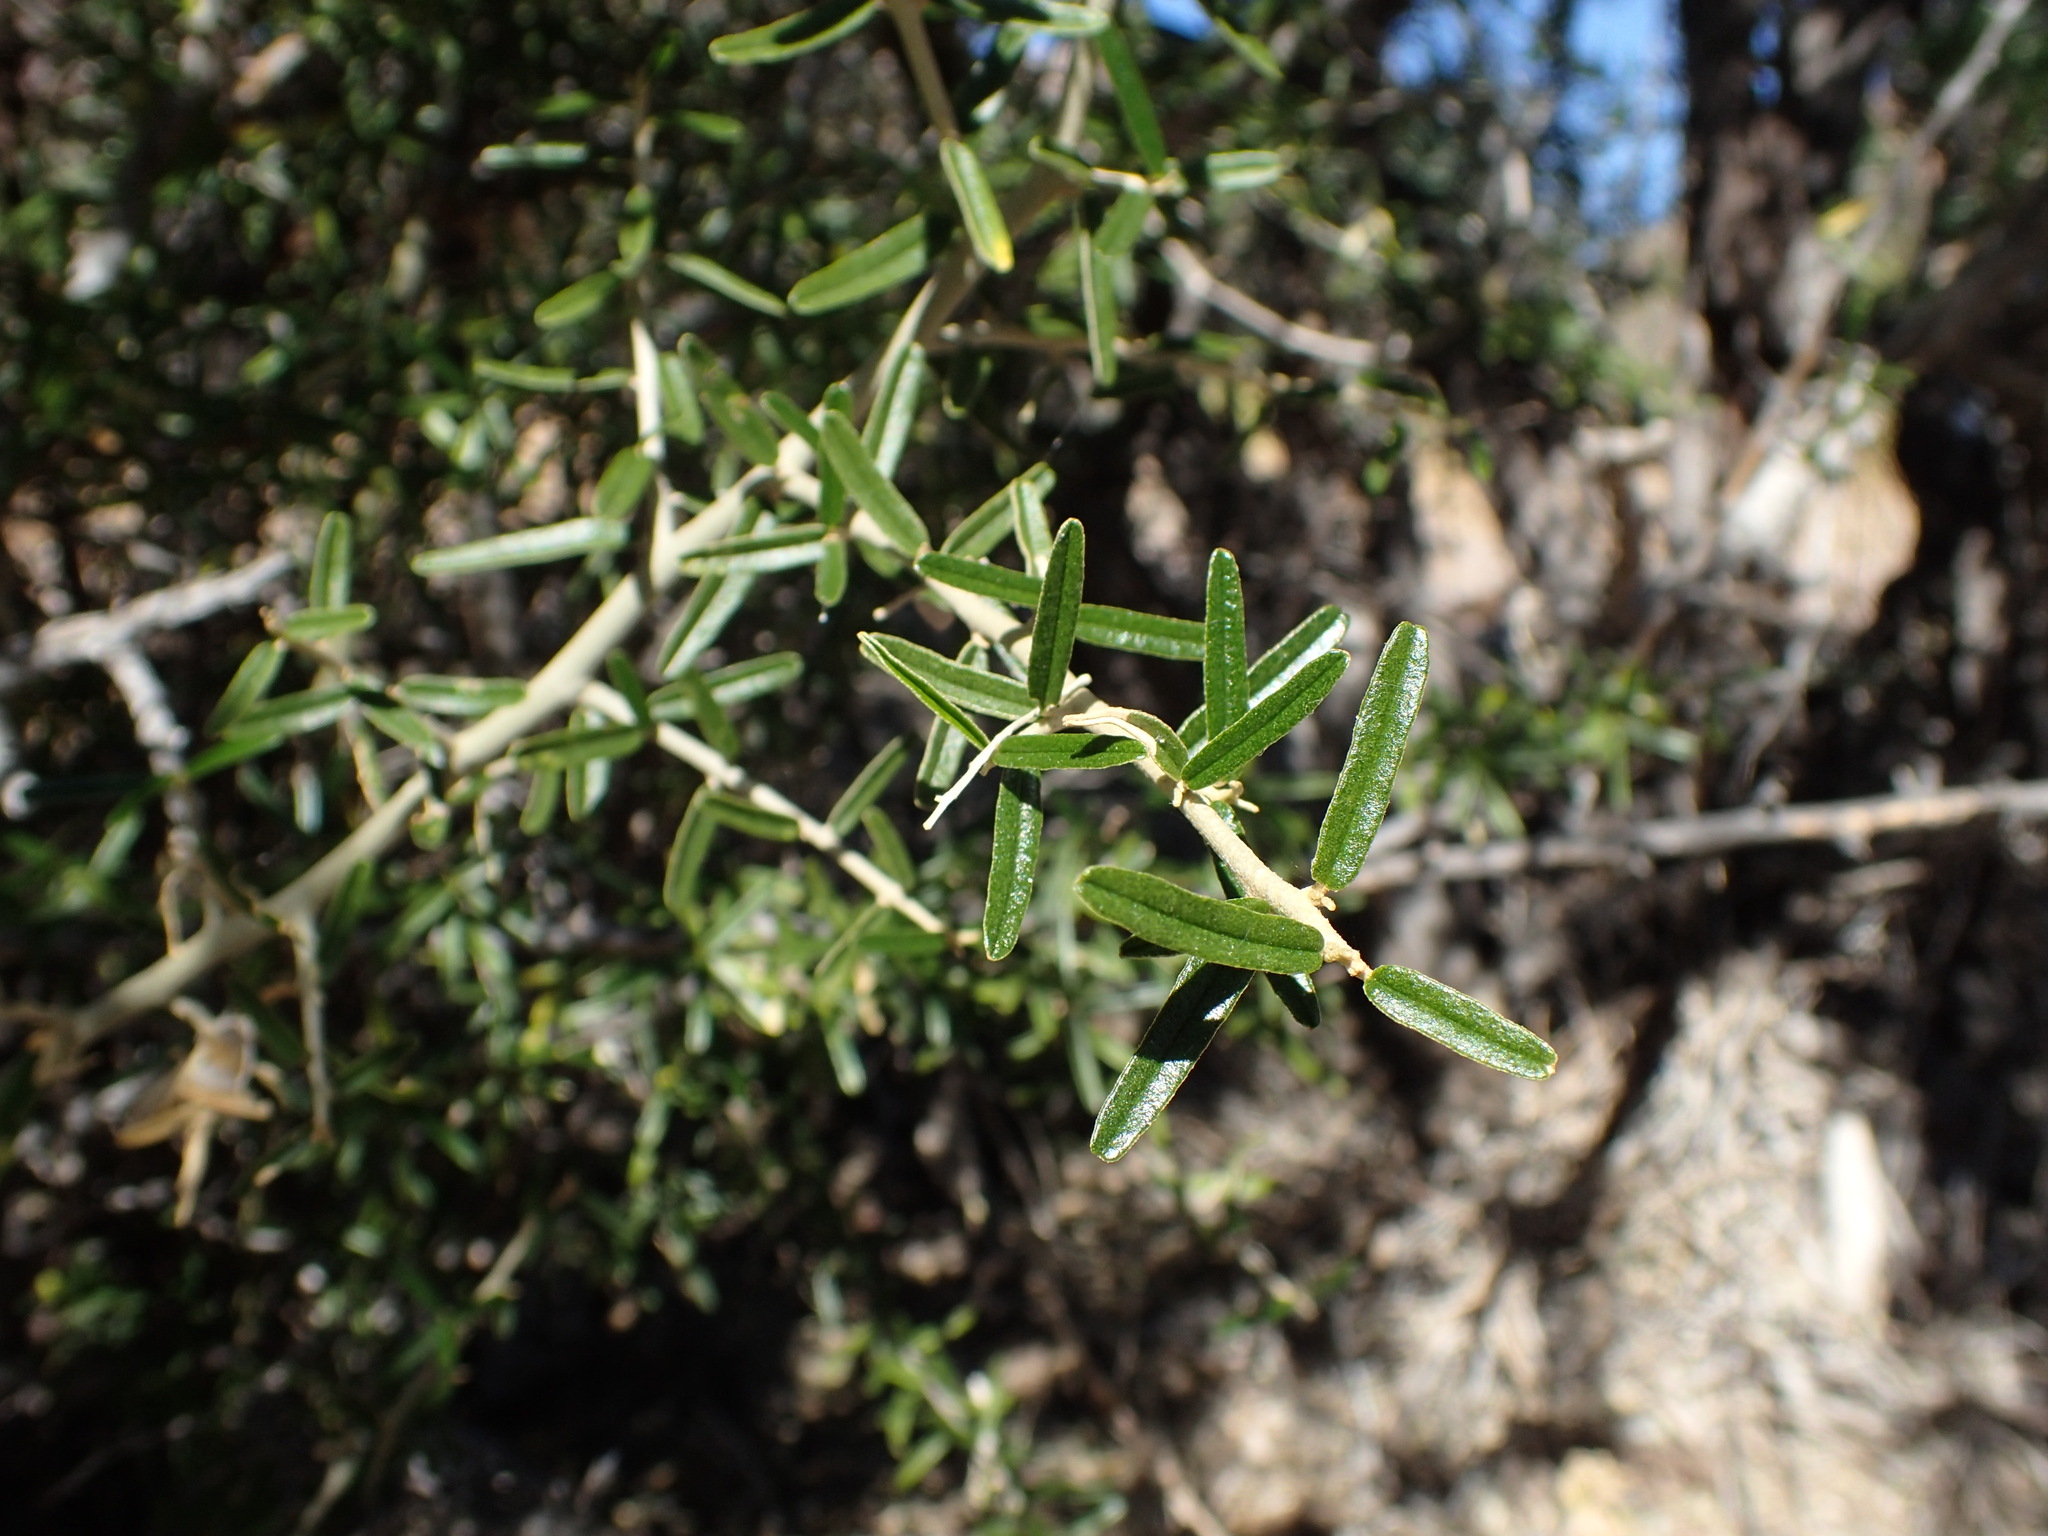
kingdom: Plantae
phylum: Tracheophyta
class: Magnoliopsida
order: Brassicales
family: Capparaceae
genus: Atamisquea
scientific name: Atamisquea emarginata
